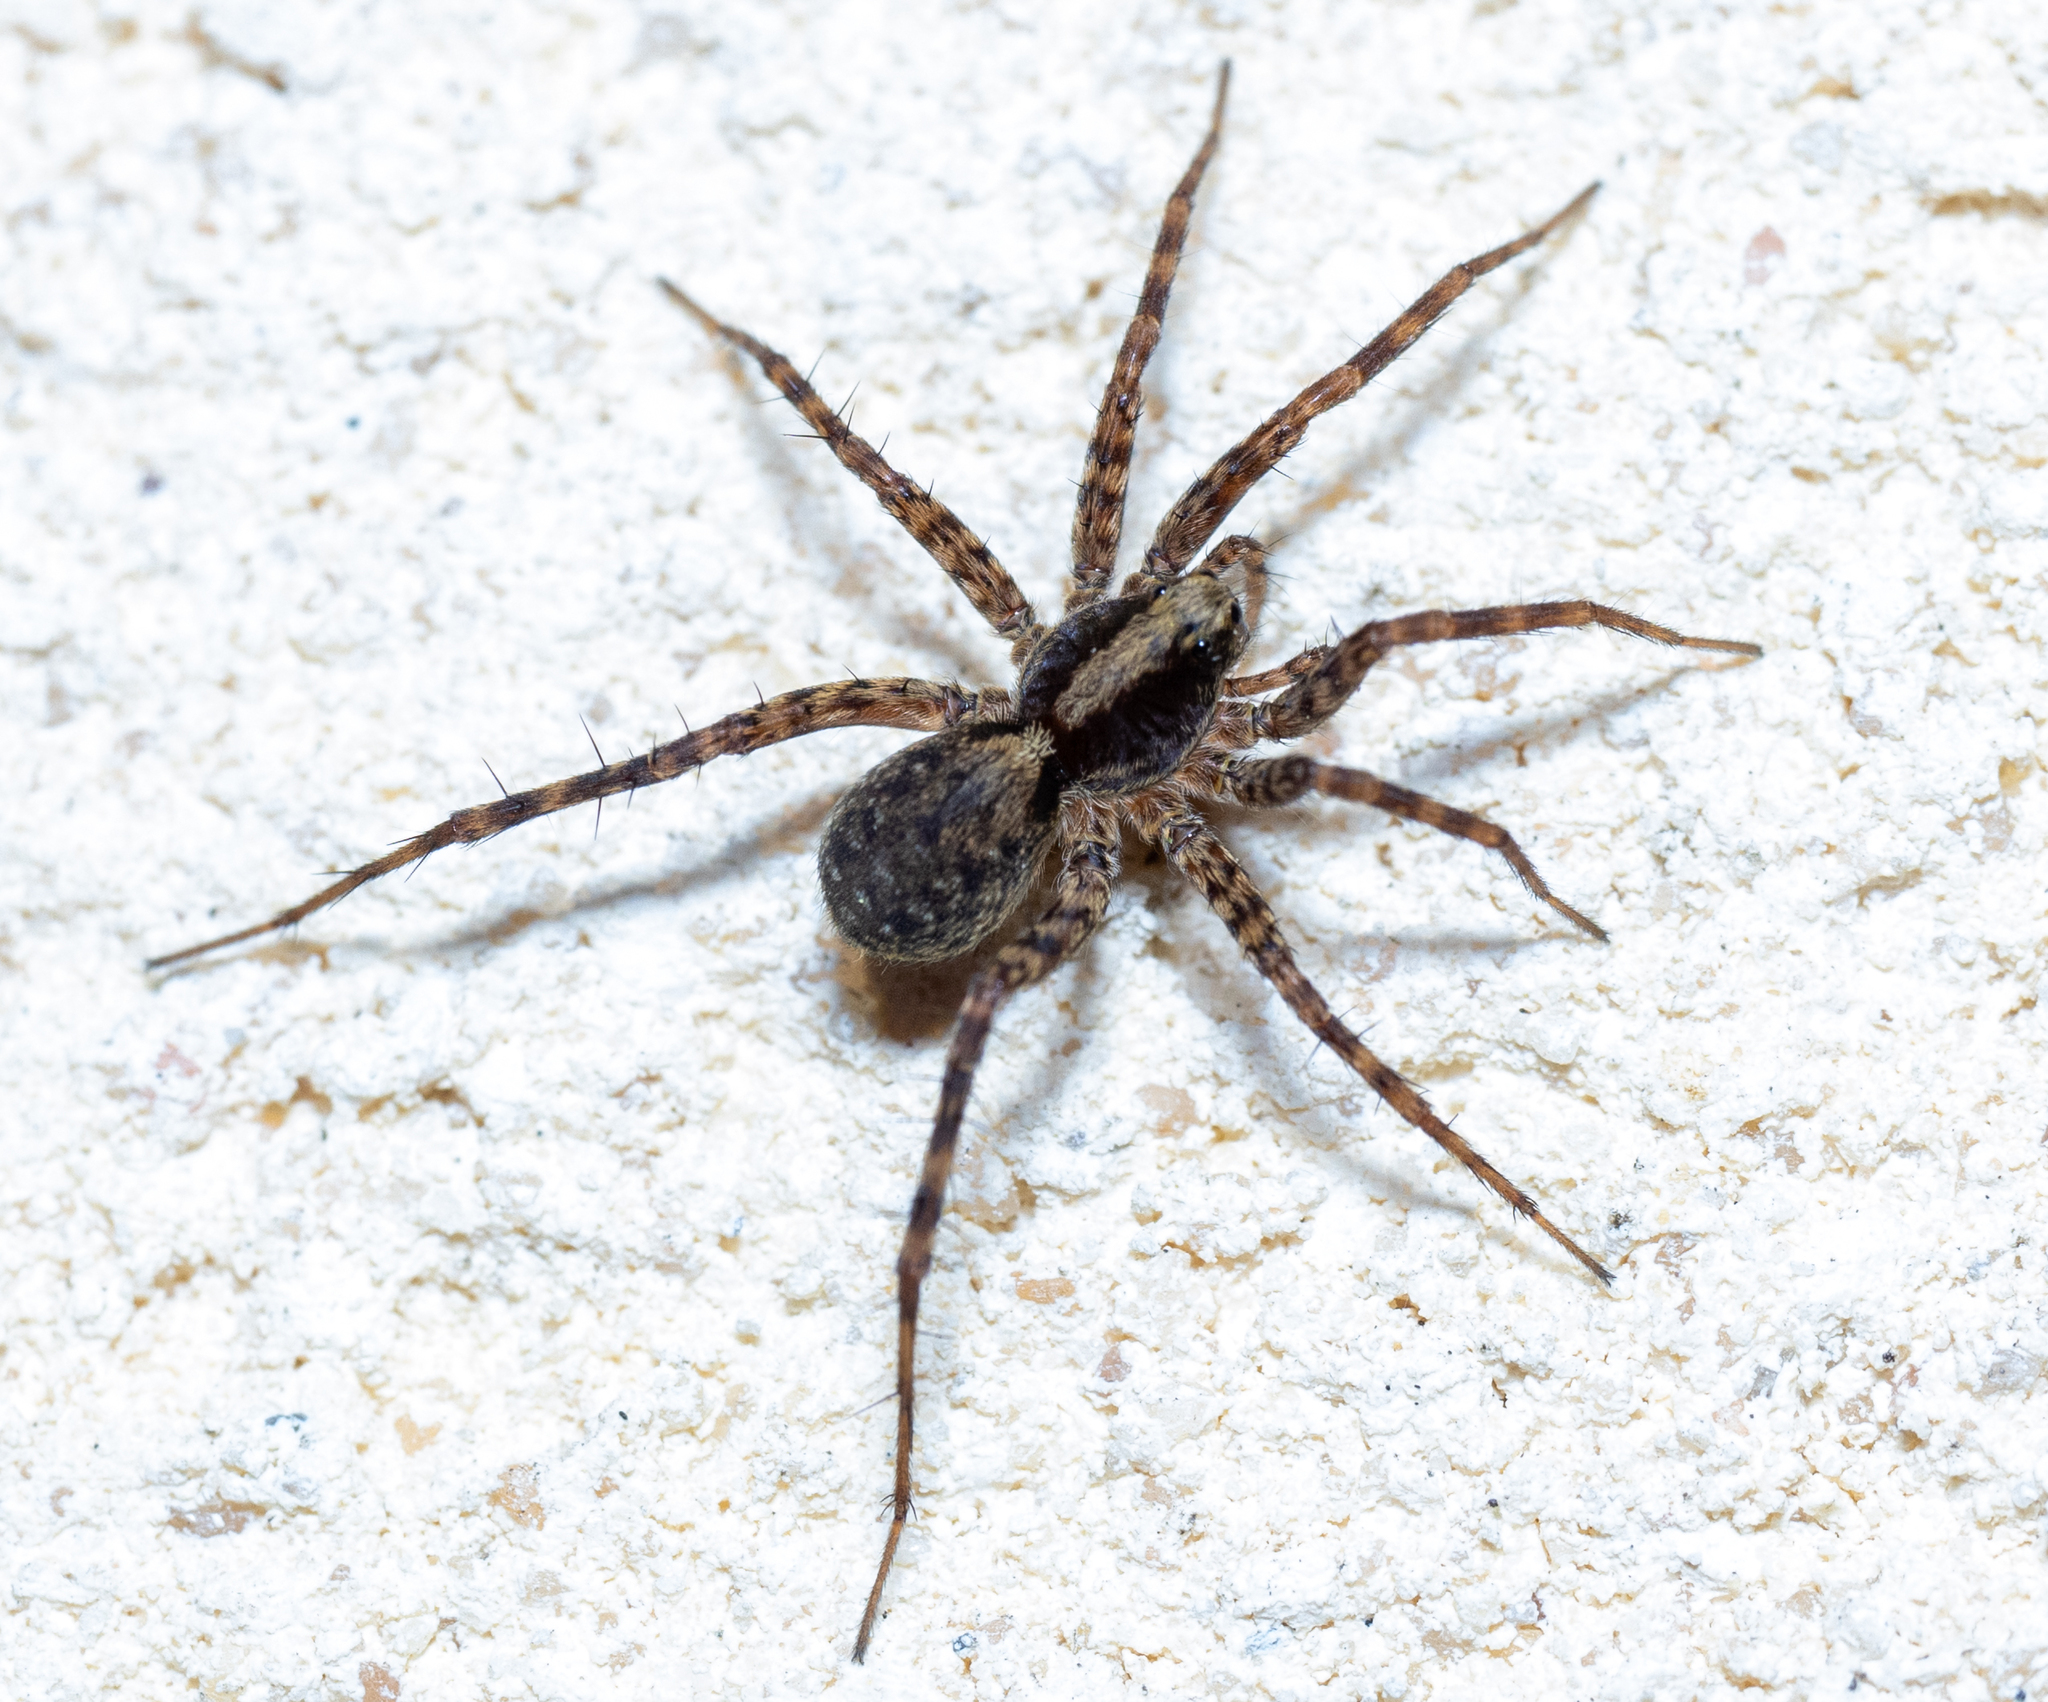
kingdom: Animalia
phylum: Arthropoda
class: Arachnida
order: Araneae
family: Lycosidae
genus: Pardosa
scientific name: Pardosa
